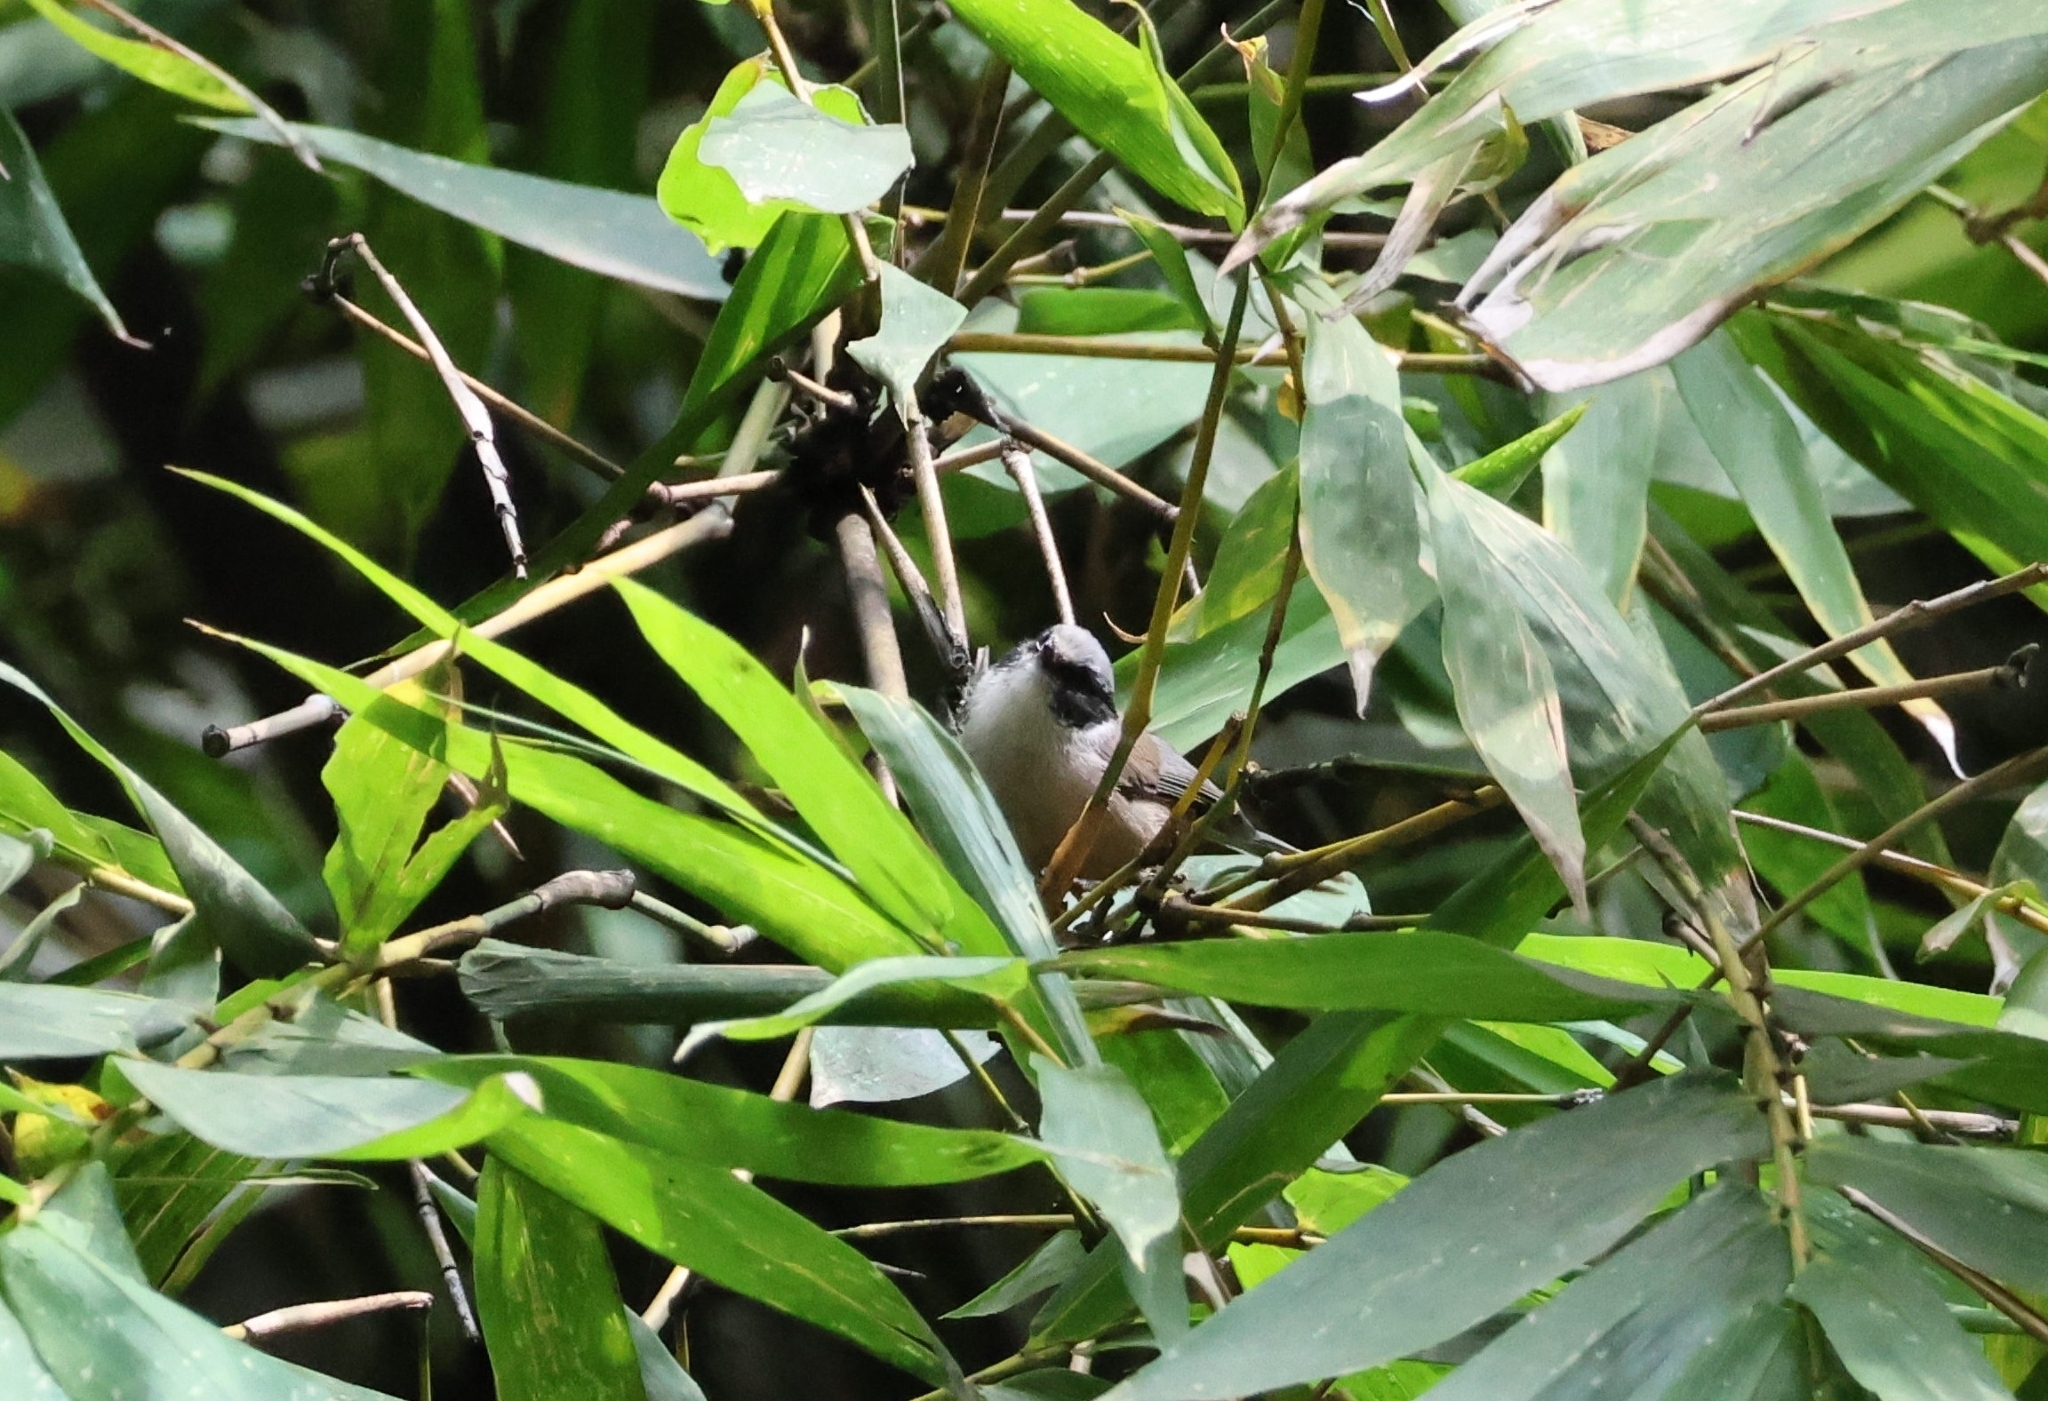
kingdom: Animalia
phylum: Chordata
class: Aves
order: Passeriformes
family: Aegithalidae
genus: Psaltriparus
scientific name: Psaltriparus minimus
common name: American bushtit
